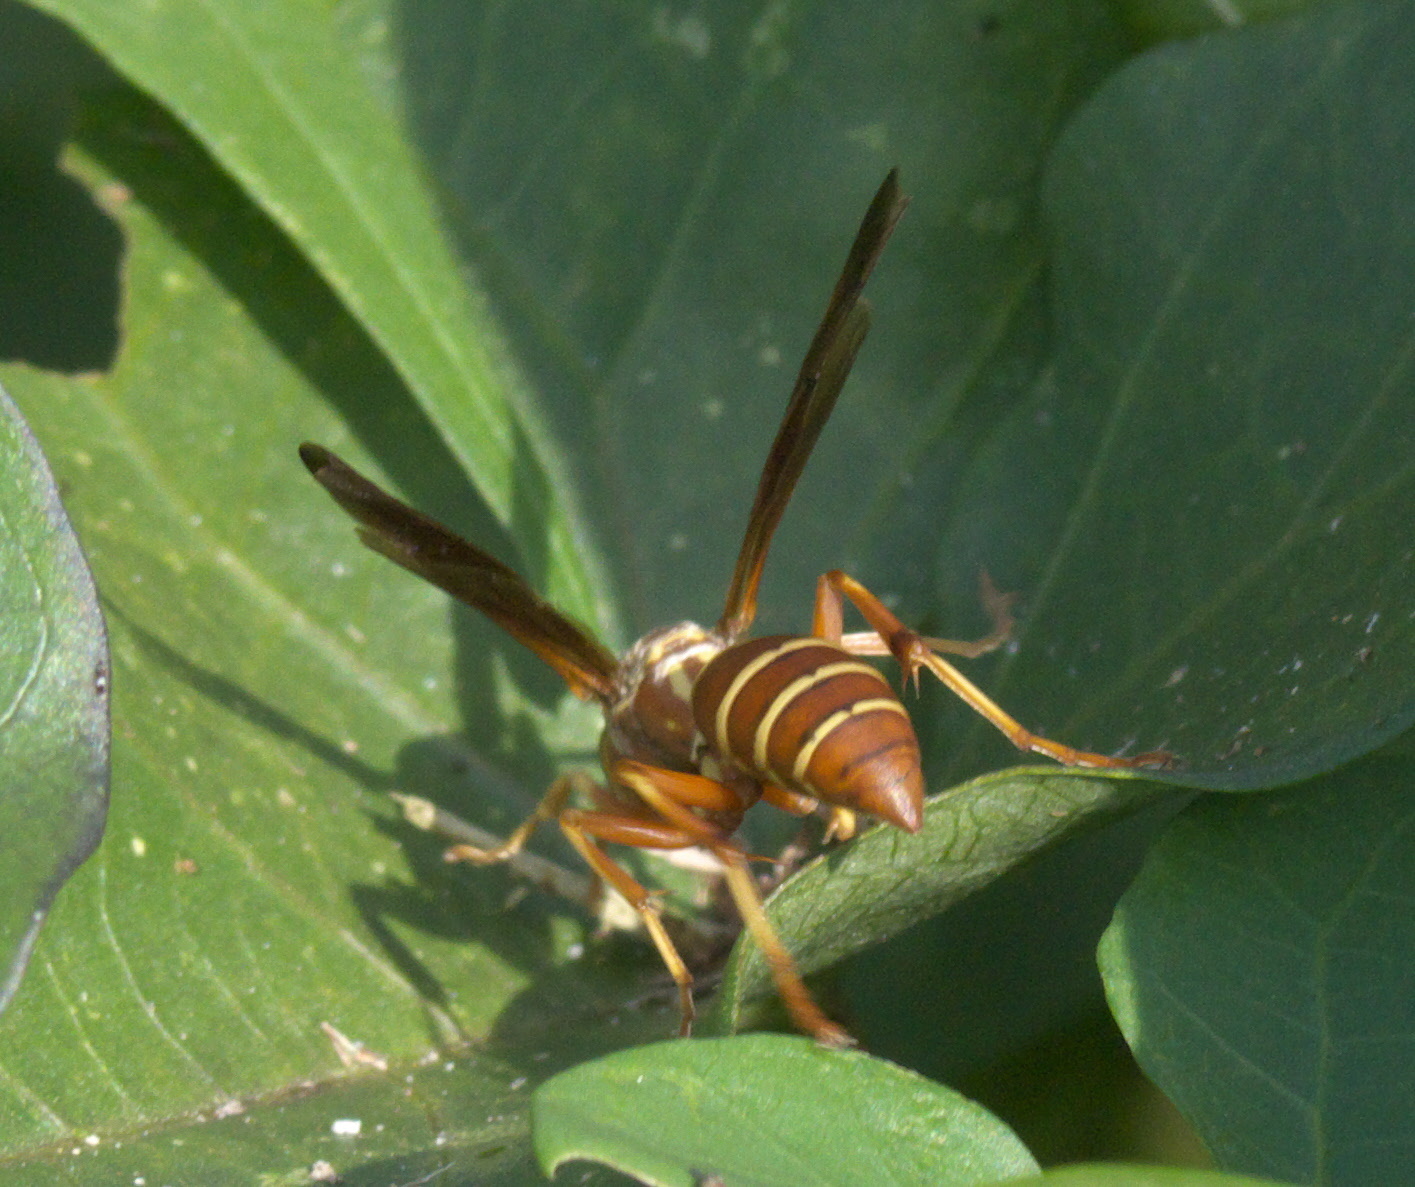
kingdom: Animalia
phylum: Arthropoda
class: Insecta
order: Hymenoptera
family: Eumenidae
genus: Polistes
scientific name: Polistes bellicosus
